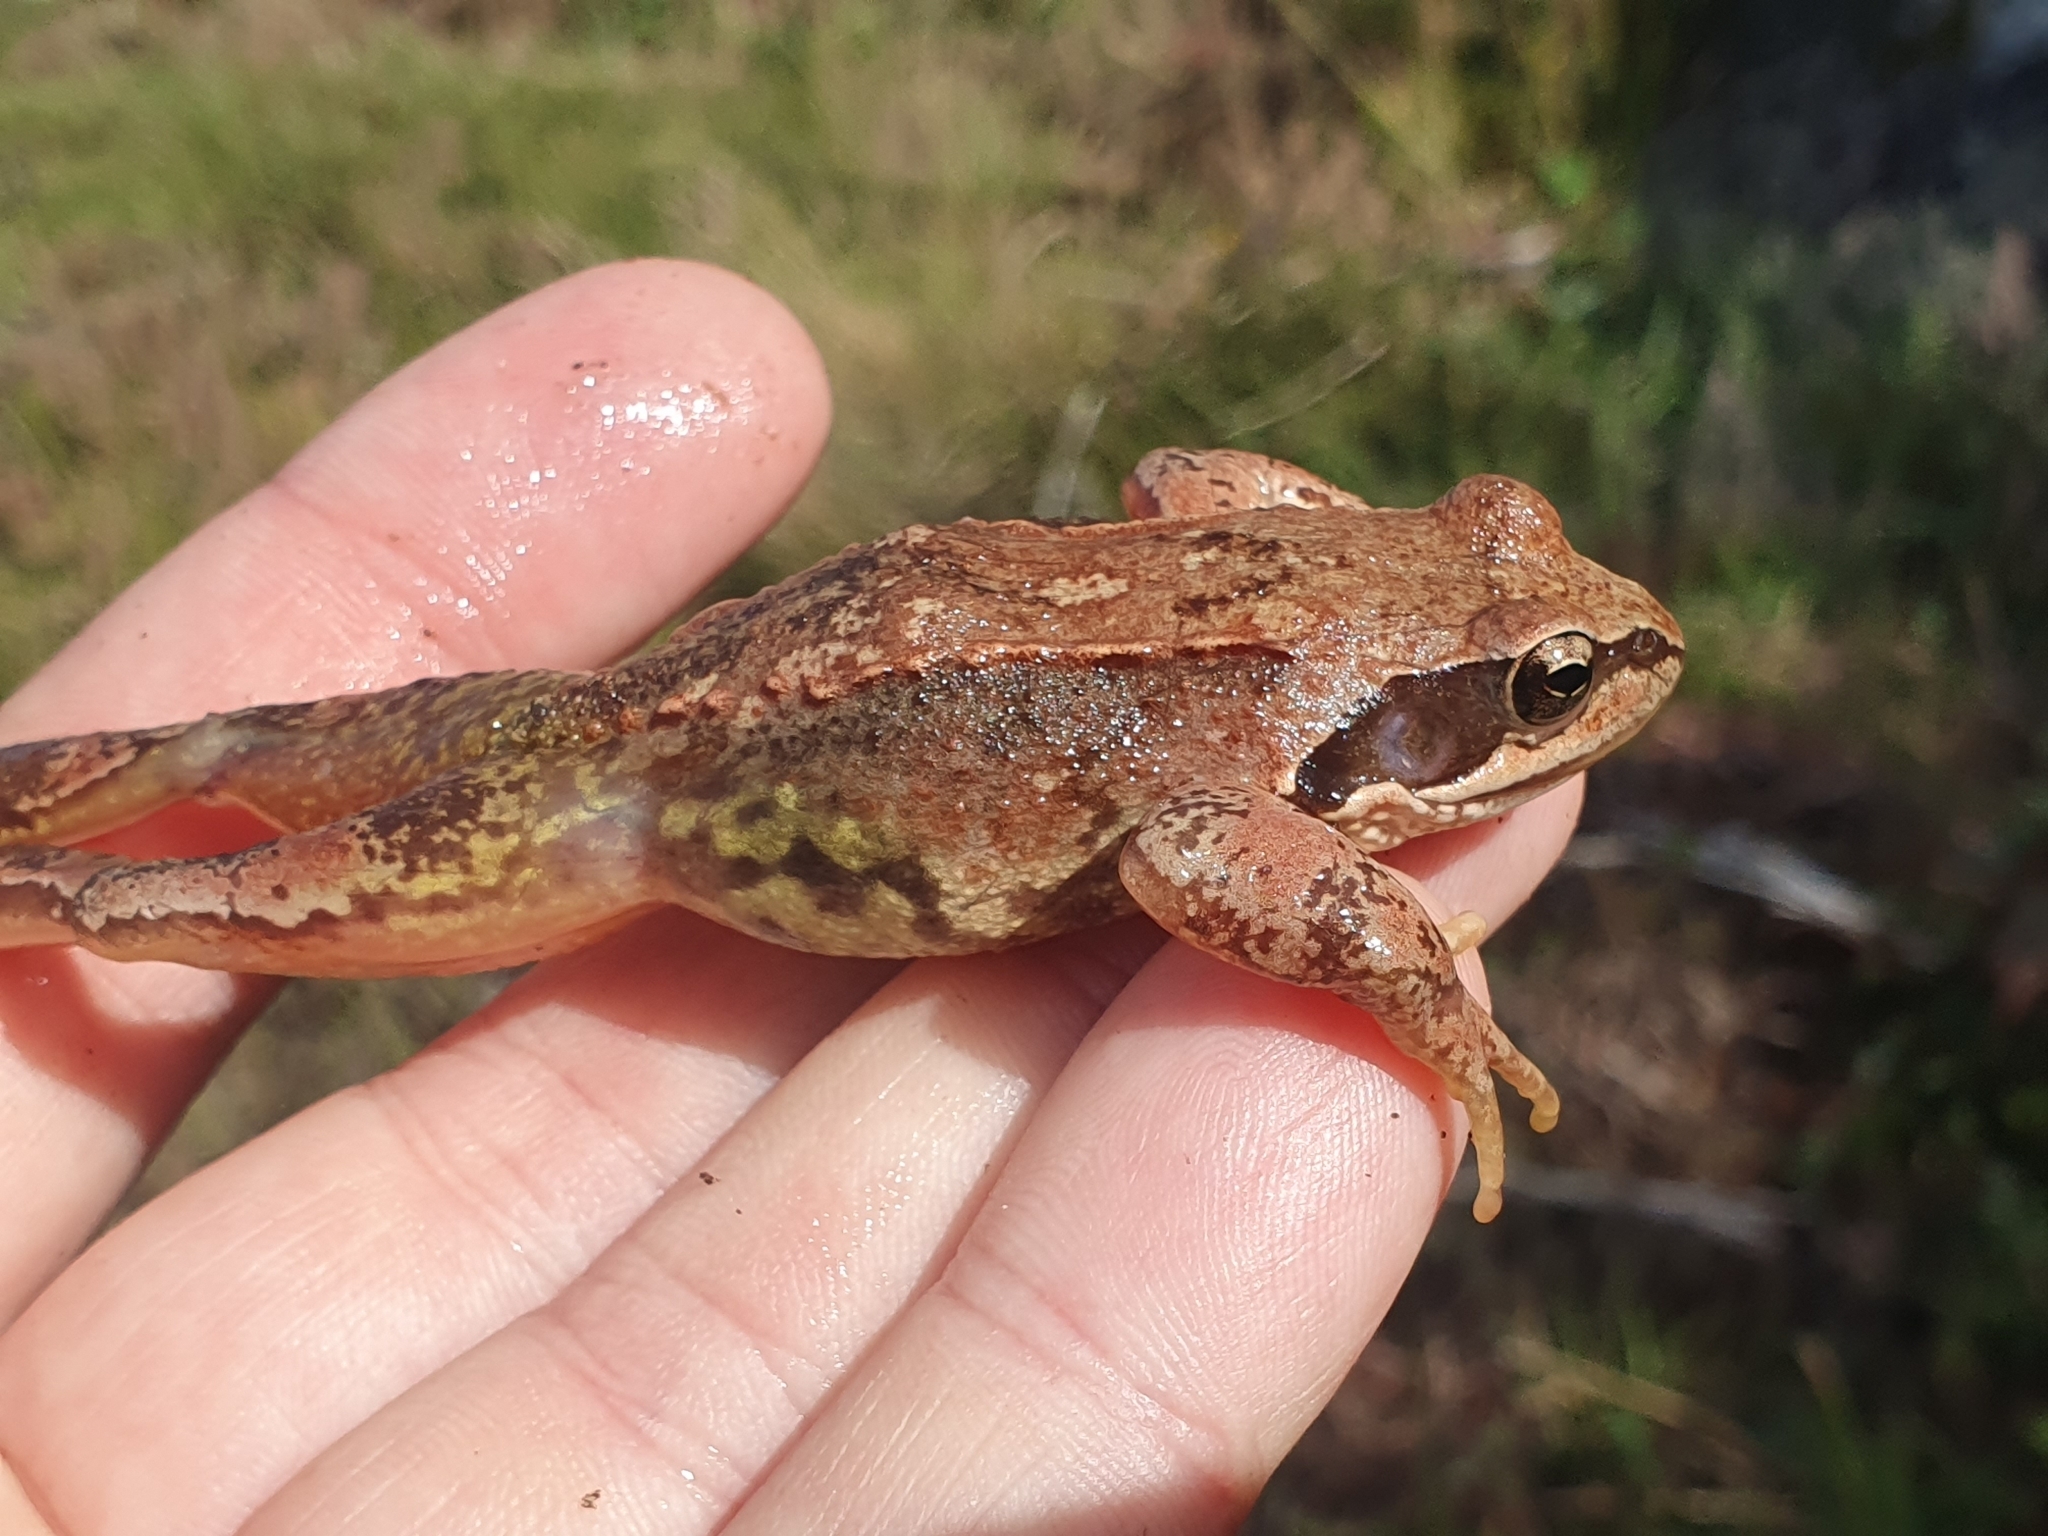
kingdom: Animalia
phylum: Chordata
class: Amphibia
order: Anura
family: Ranidae
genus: Rana
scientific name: Rana temporaria
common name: Common frog
